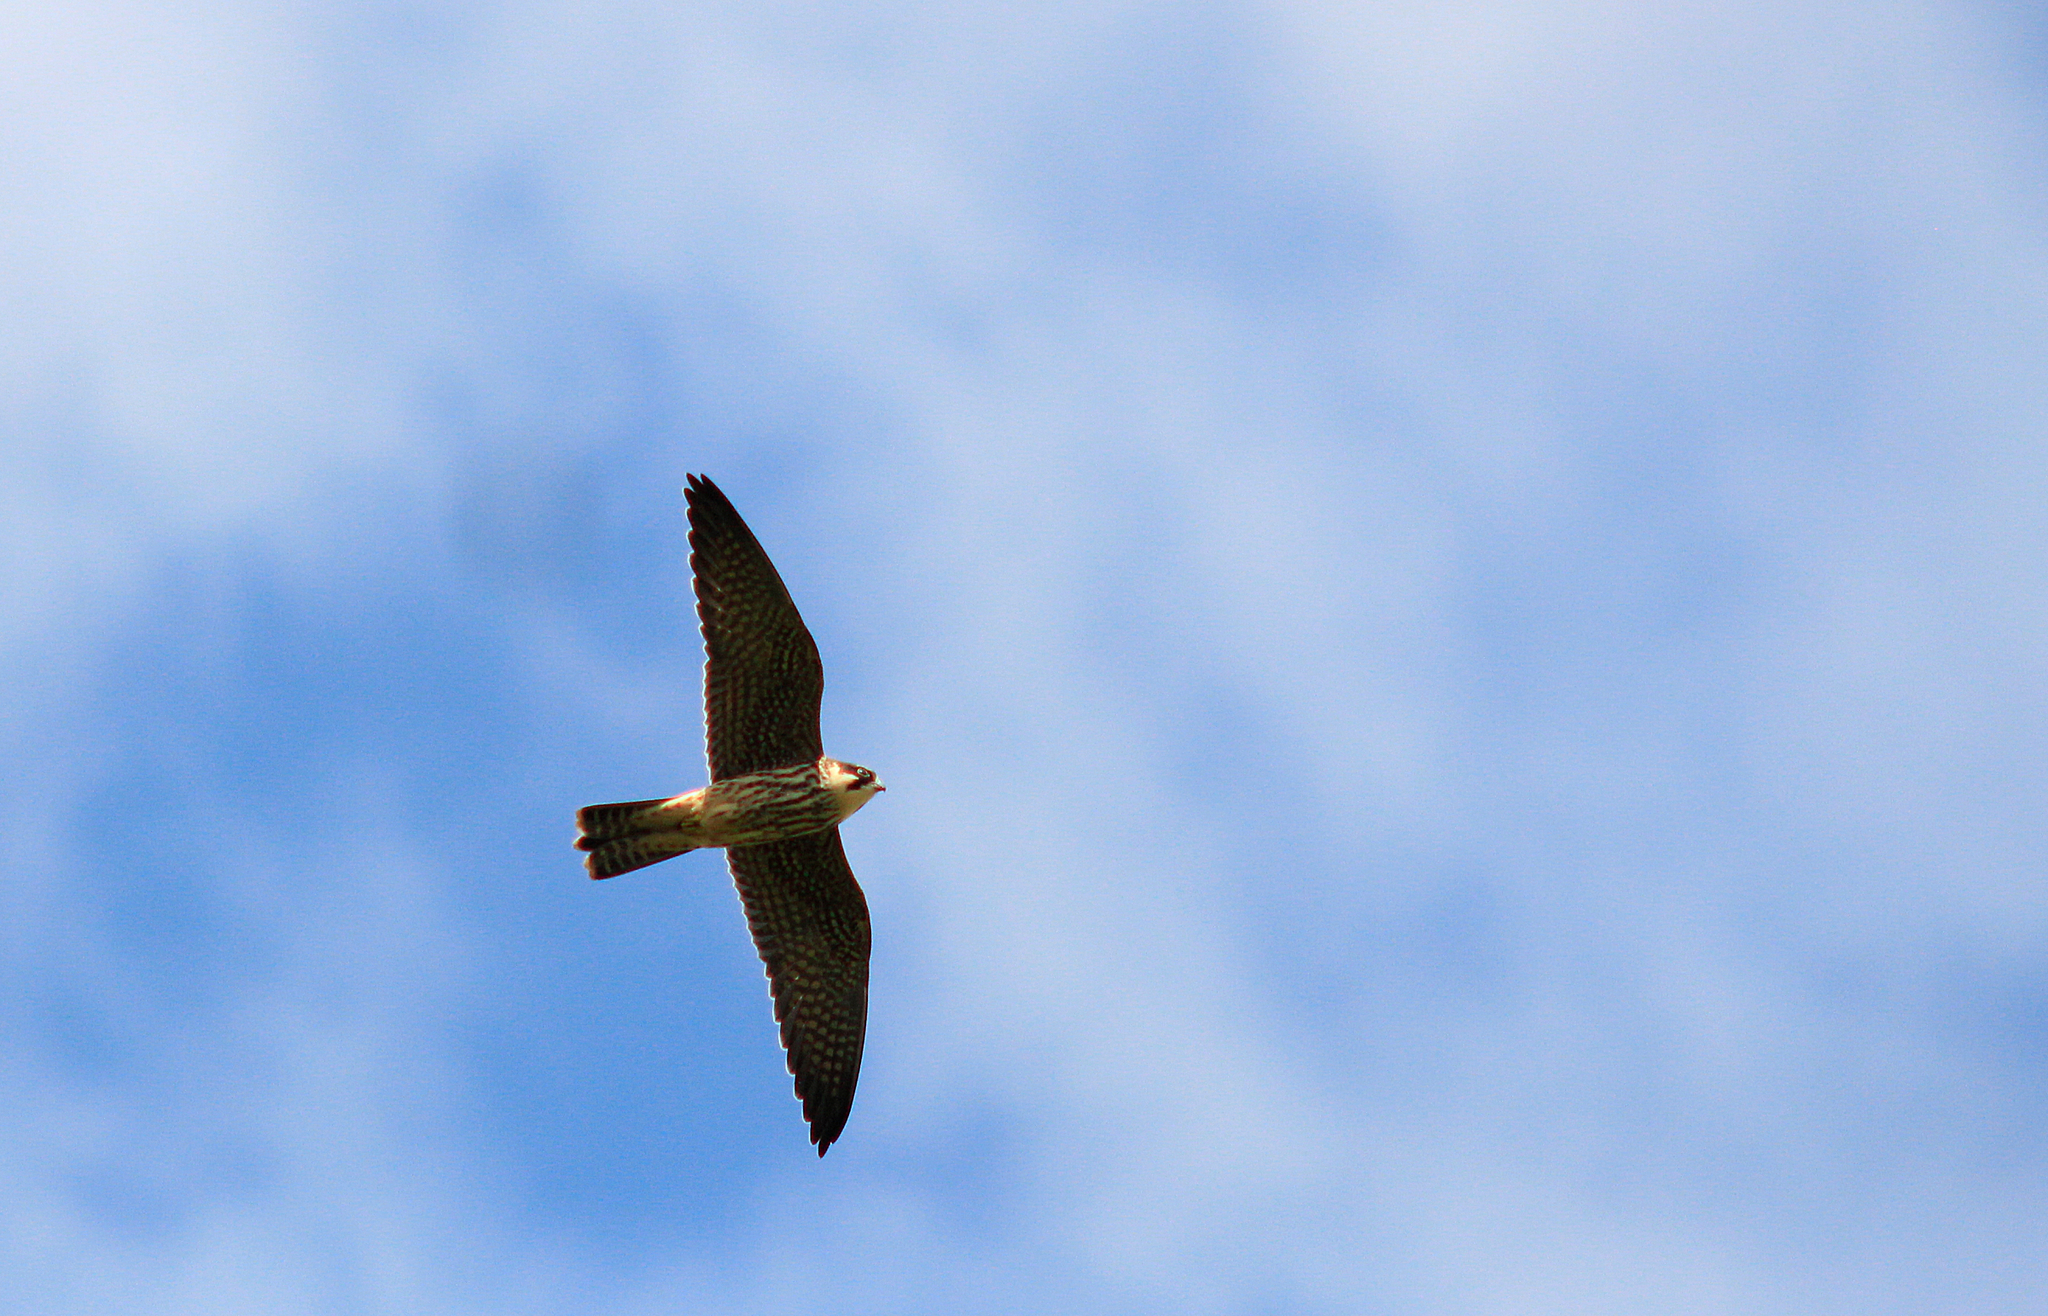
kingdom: Animalia
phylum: Chordata
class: Aves
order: Falconiformes
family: Falconidae
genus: Falco
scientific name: Falco subbuteo
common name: Eurasian hobby
